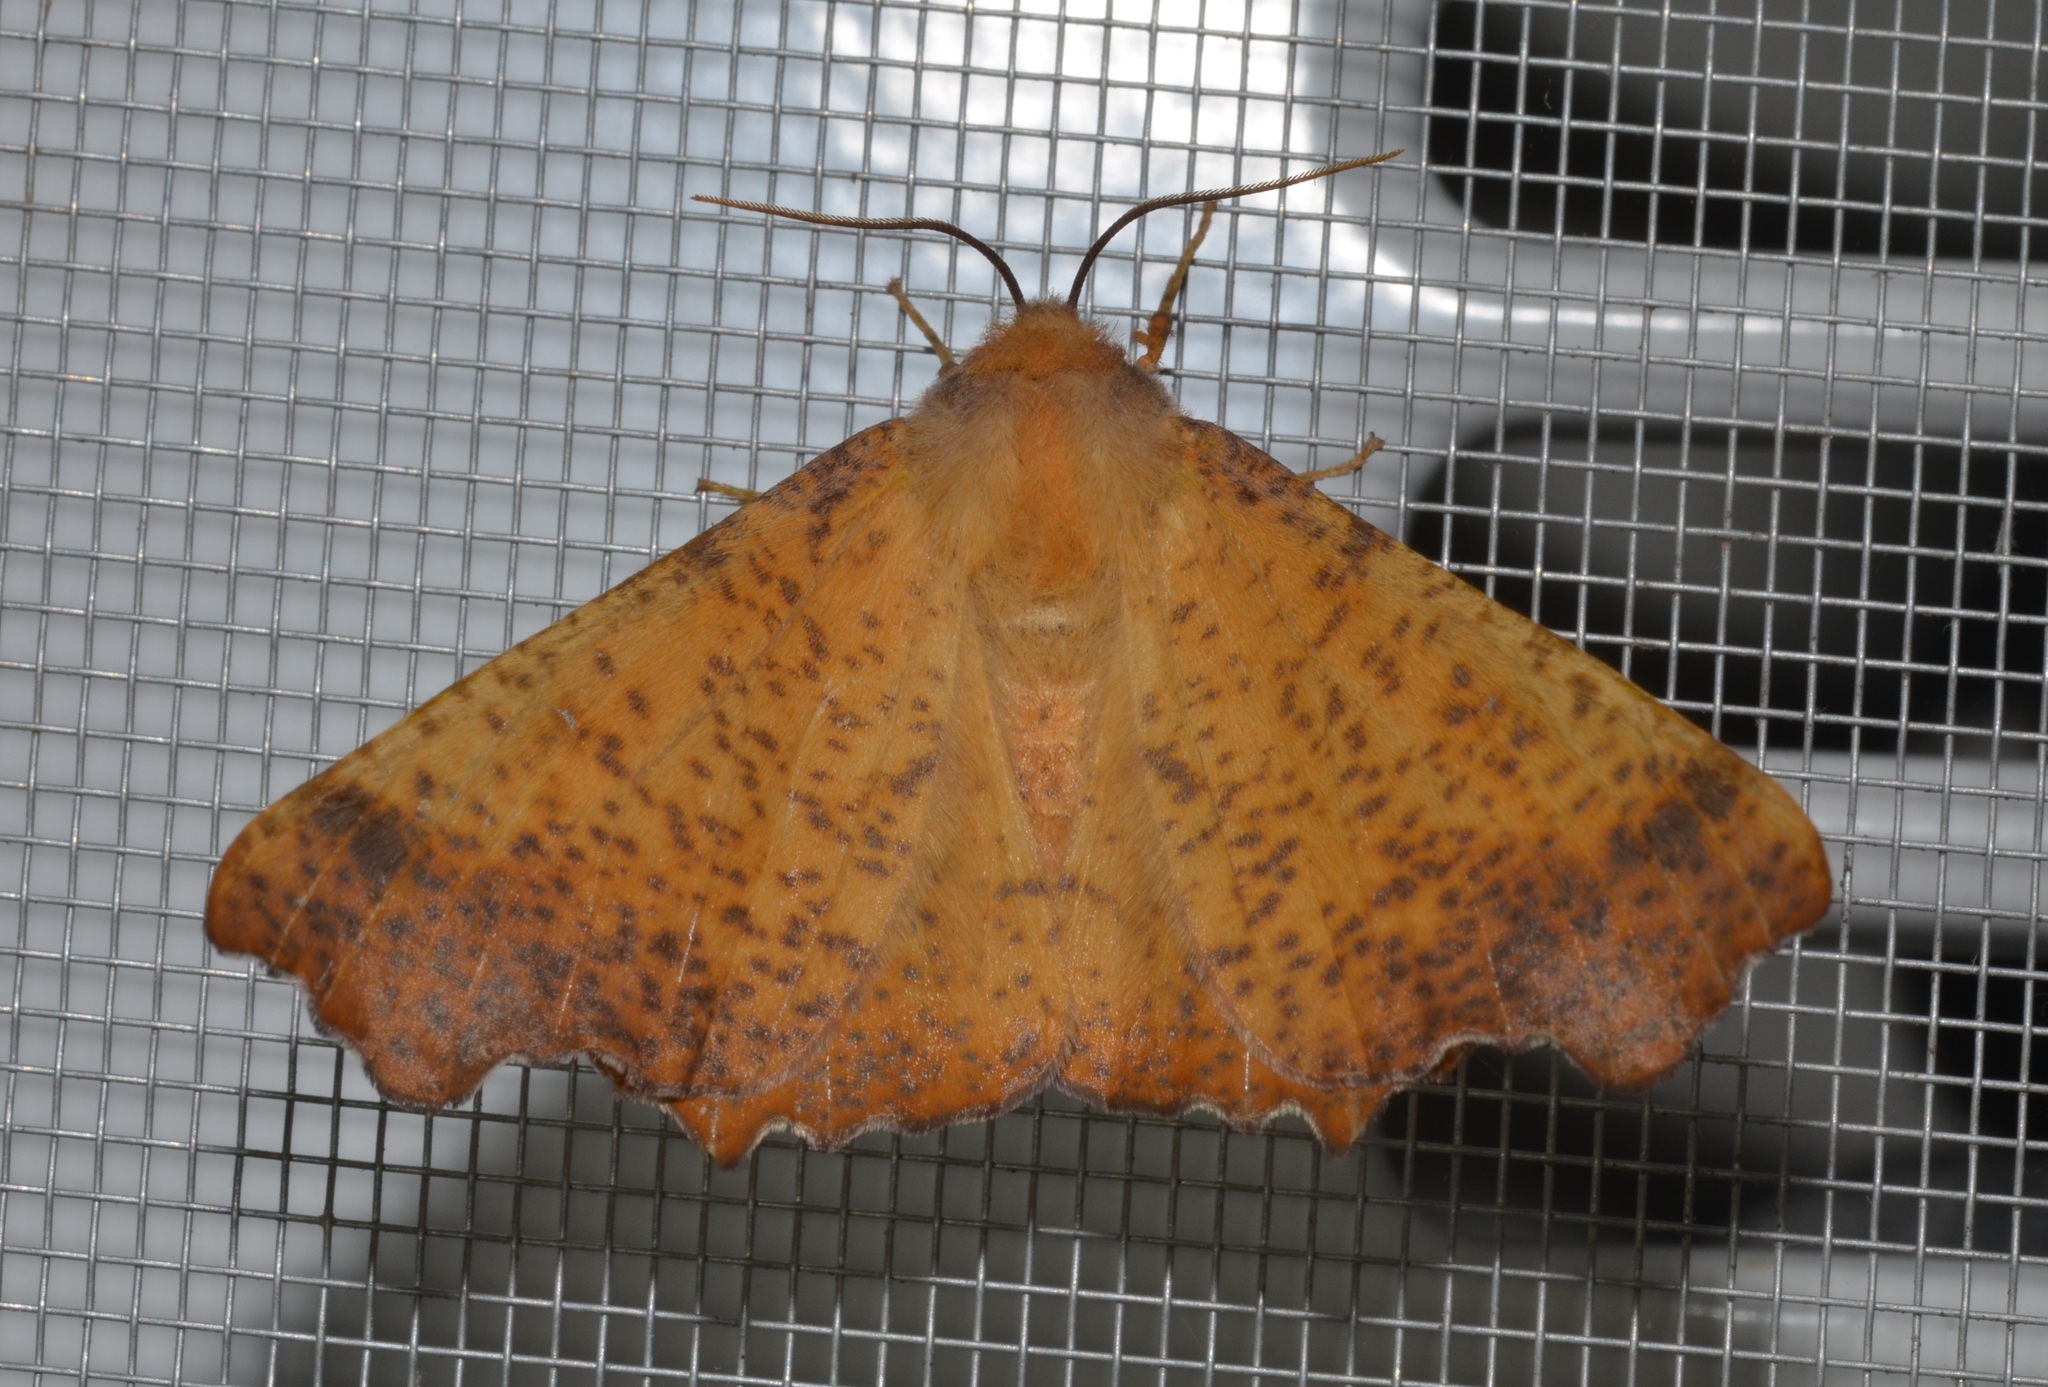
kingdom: Animalia
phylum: Arthropoda
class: Insecta
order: Lepidoptera
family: Geometridae
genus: Ennomos
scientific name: Ennomos magnaria
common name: Maple spanworm
